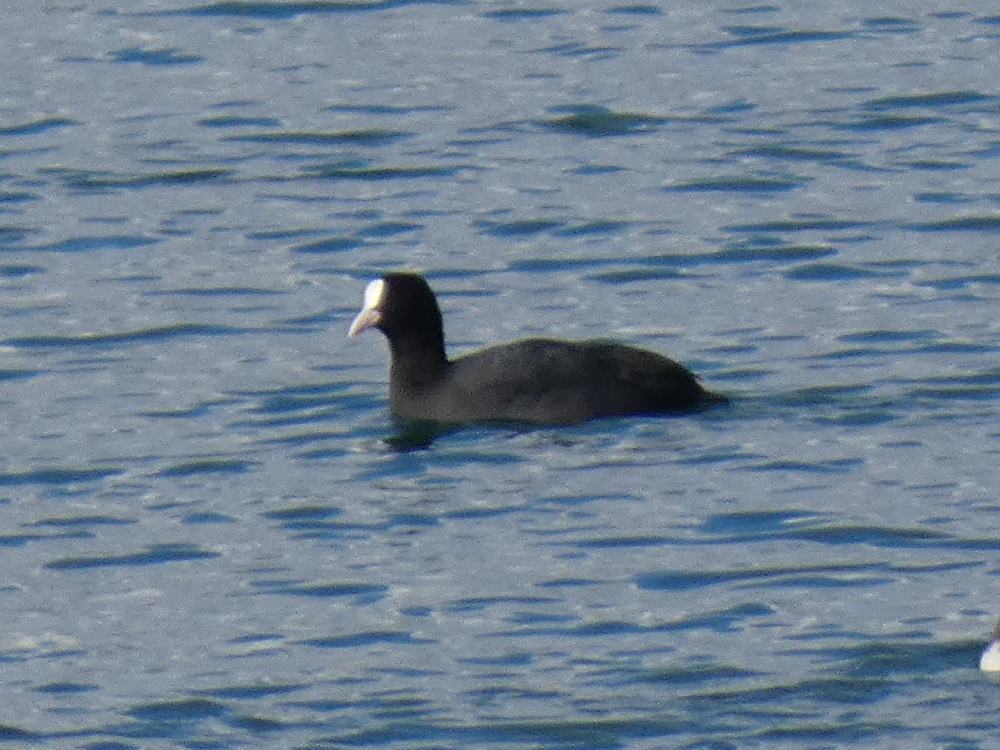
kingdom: Animalia
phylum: Chordata
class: Aves
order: Gruiformes
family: Rallidae
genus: Fulica
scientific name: Fulica atra
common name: Eurasian coot
